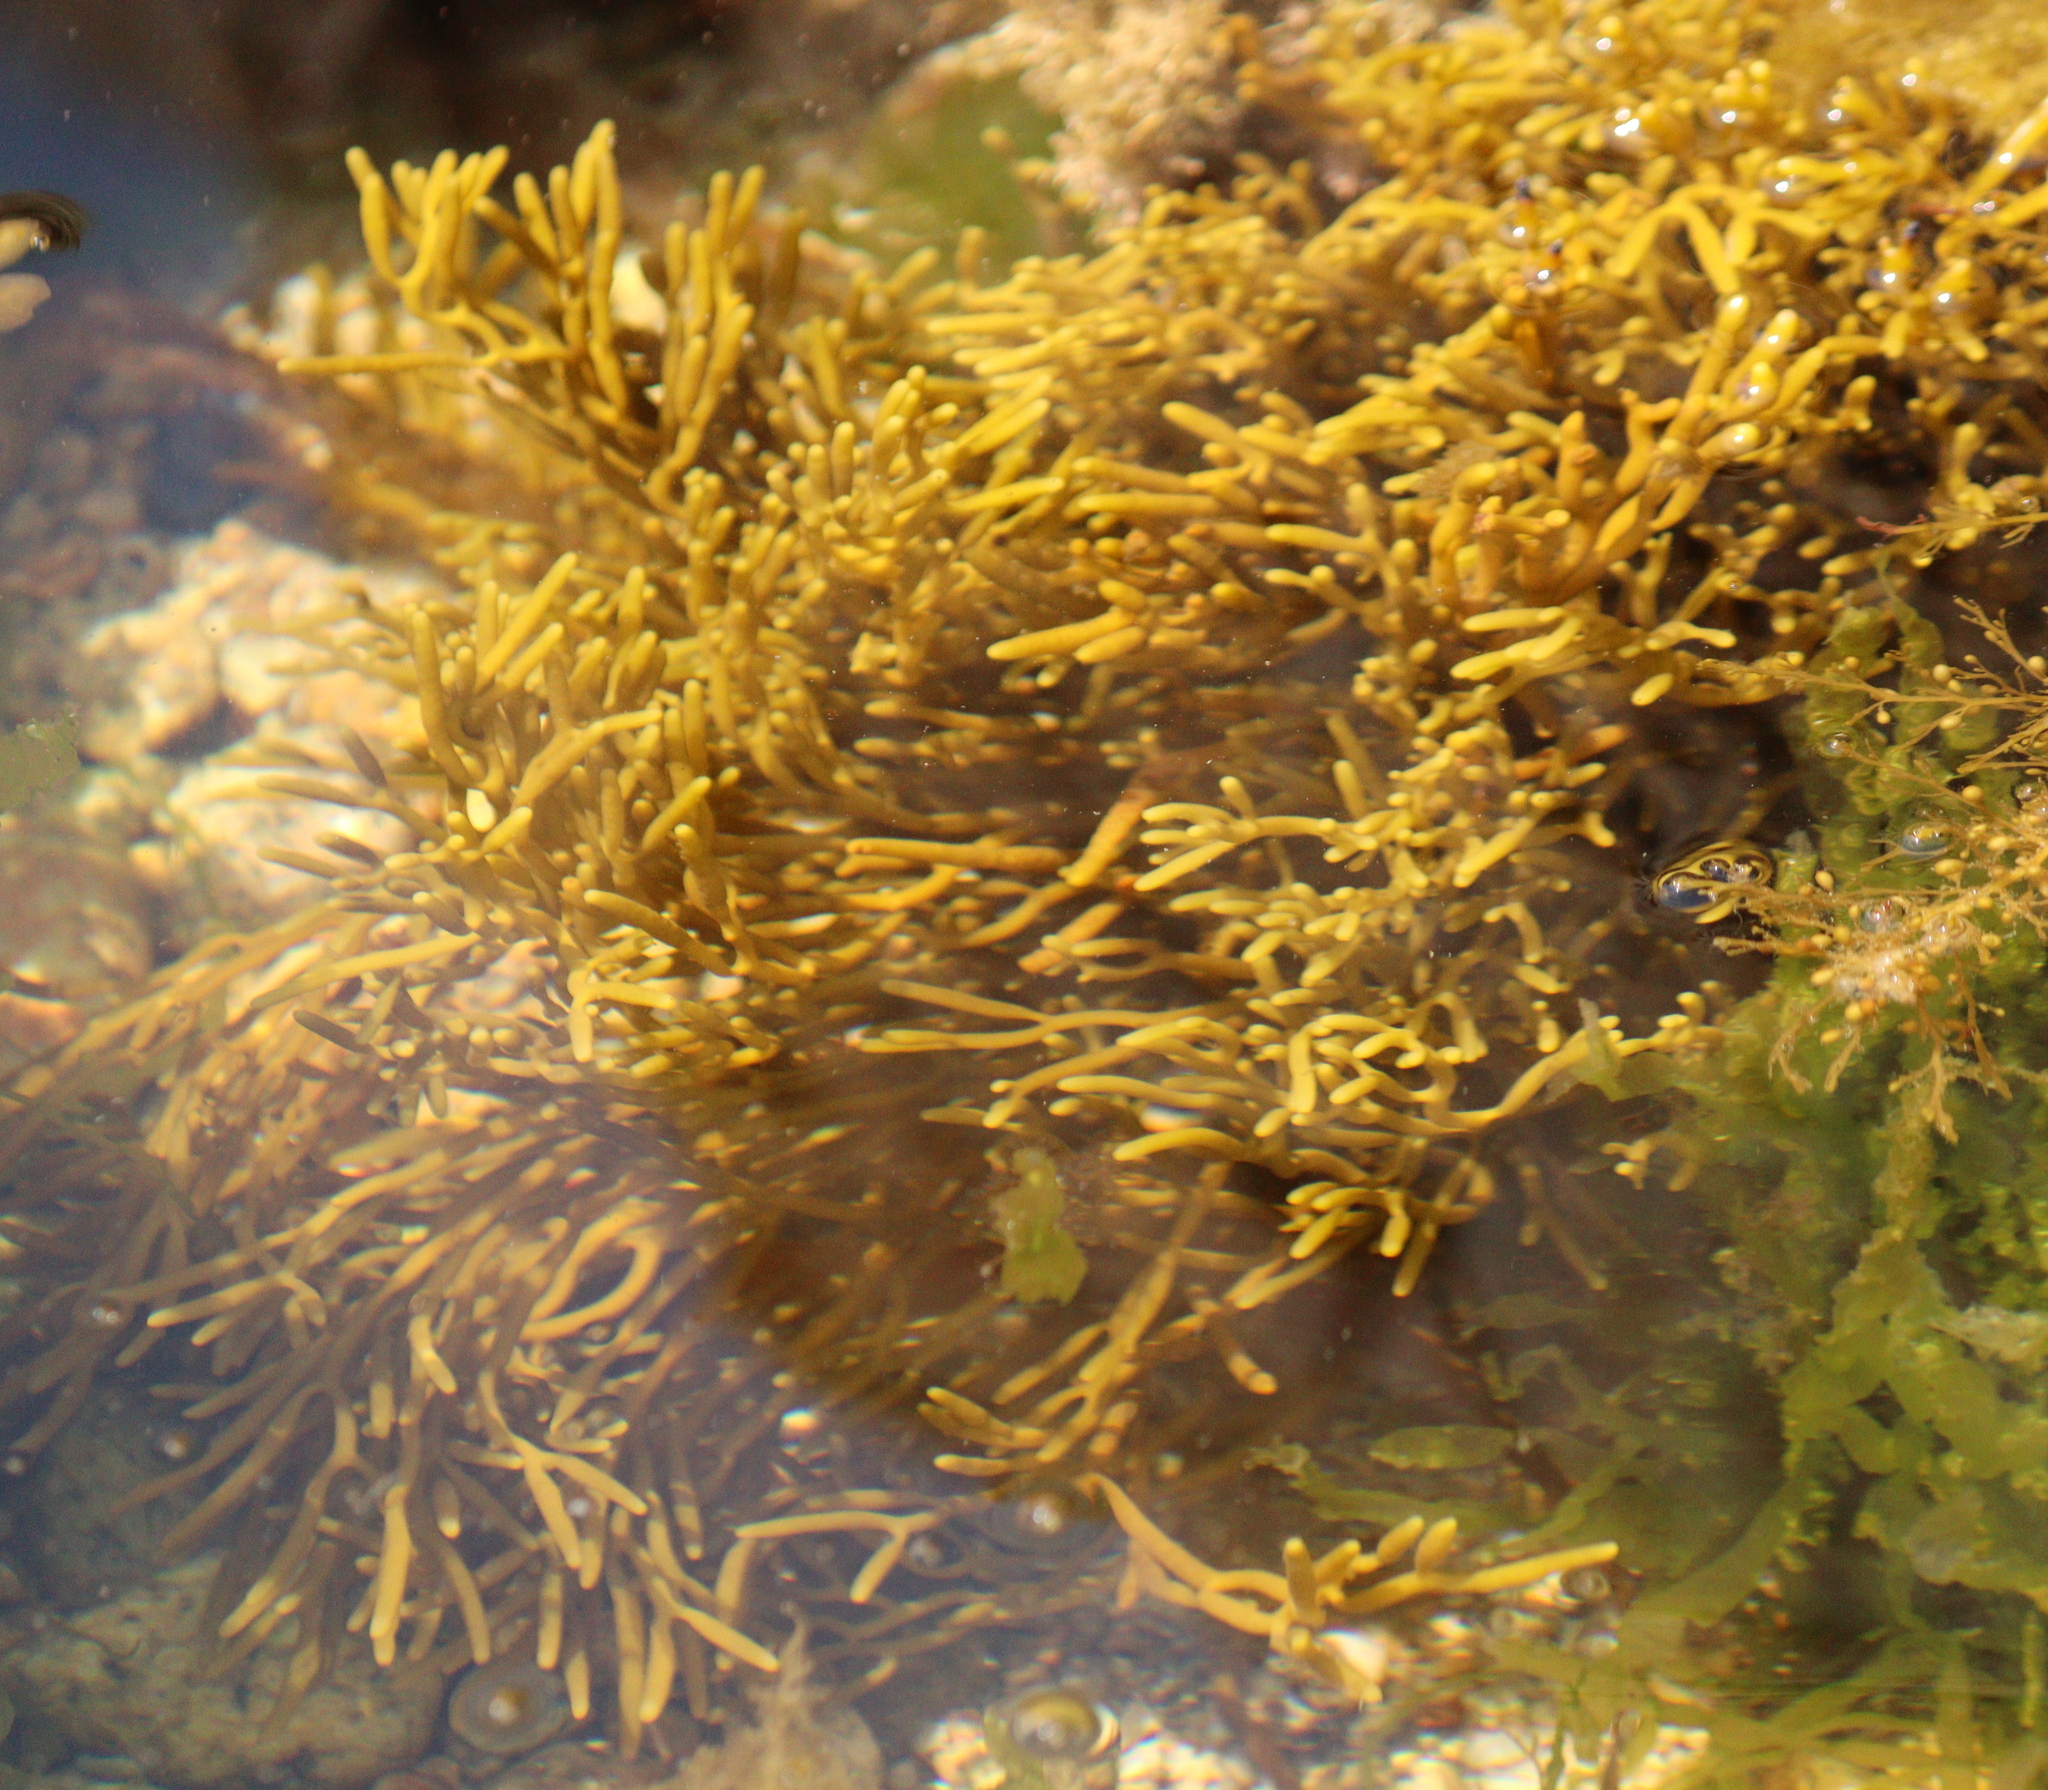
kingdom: Chromista
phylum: Ochrophyta
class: Phaeophyceae
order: Fucales
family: Sargassaceae
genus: Bifurcaria
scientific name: Bifurcaria bifurcata
